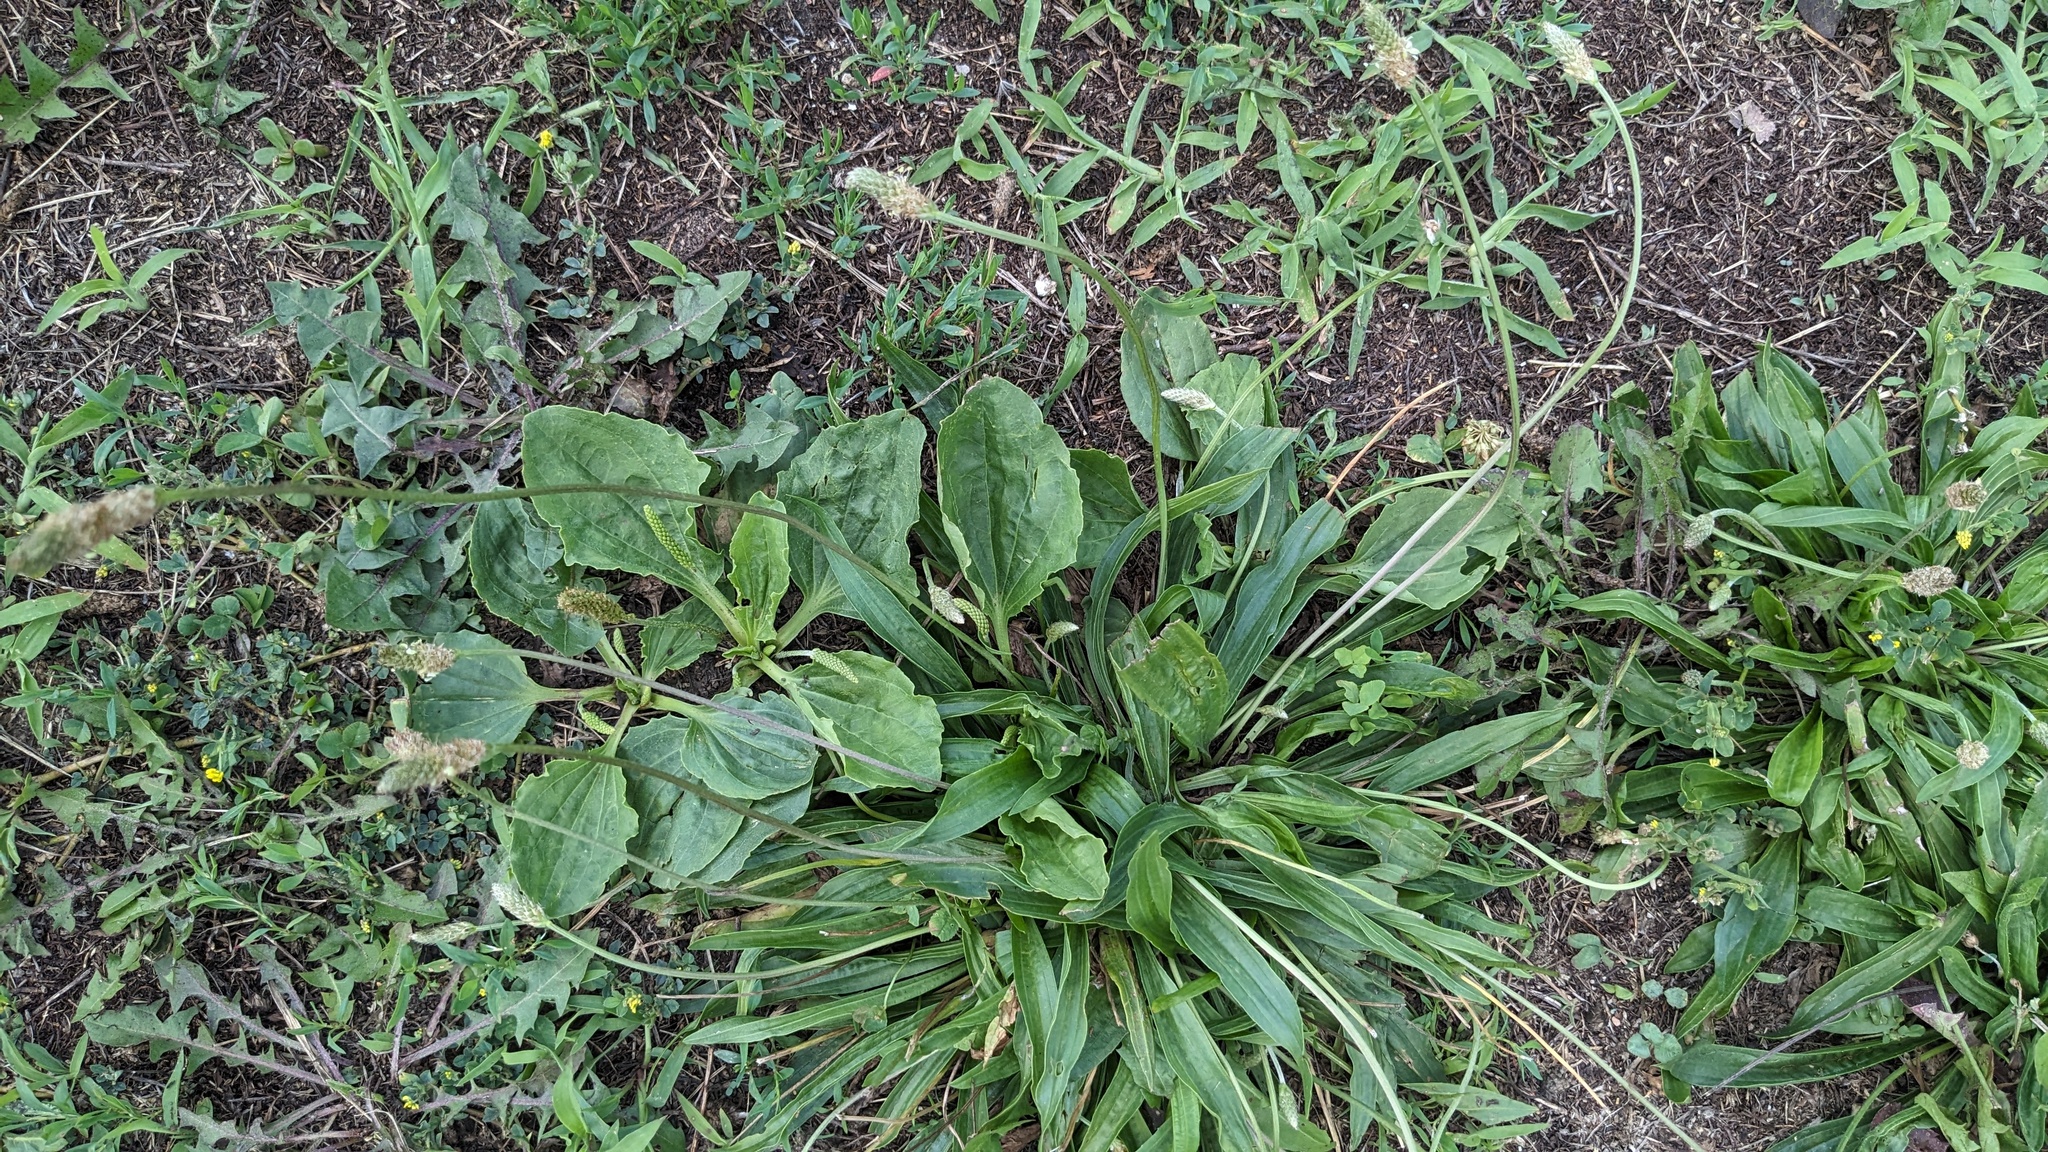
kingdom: Plantae
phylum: Tracheophyta
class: Magnoliopsida
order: Lamiales
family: Plantaginaceae
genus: Plantago
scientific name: Plantago lanceolata
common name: Ribwort plantain
